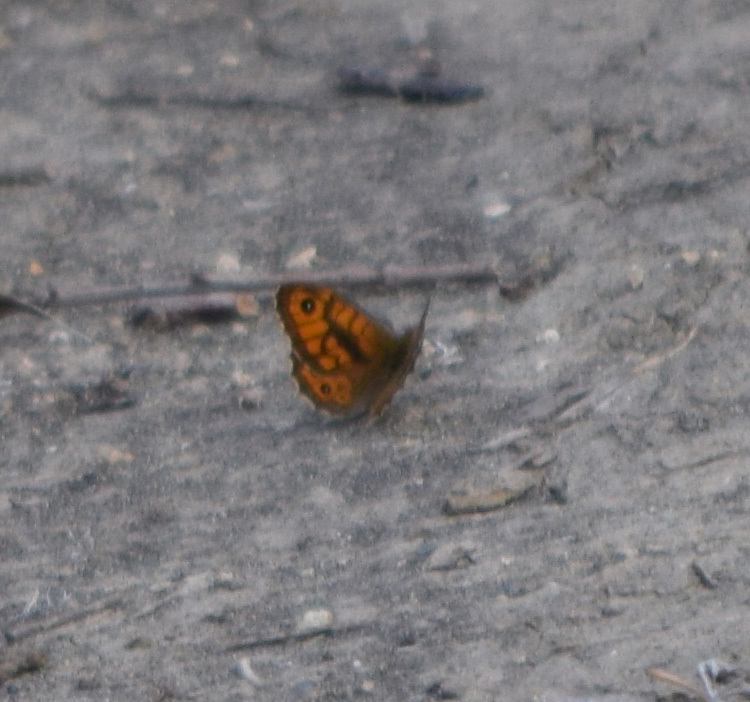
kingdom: Animalia
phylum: Arthropoda
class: Insecta
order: Lepidoptera
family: Nymphalidae
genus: Pararge
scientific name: Pararge Lasiommata megera
